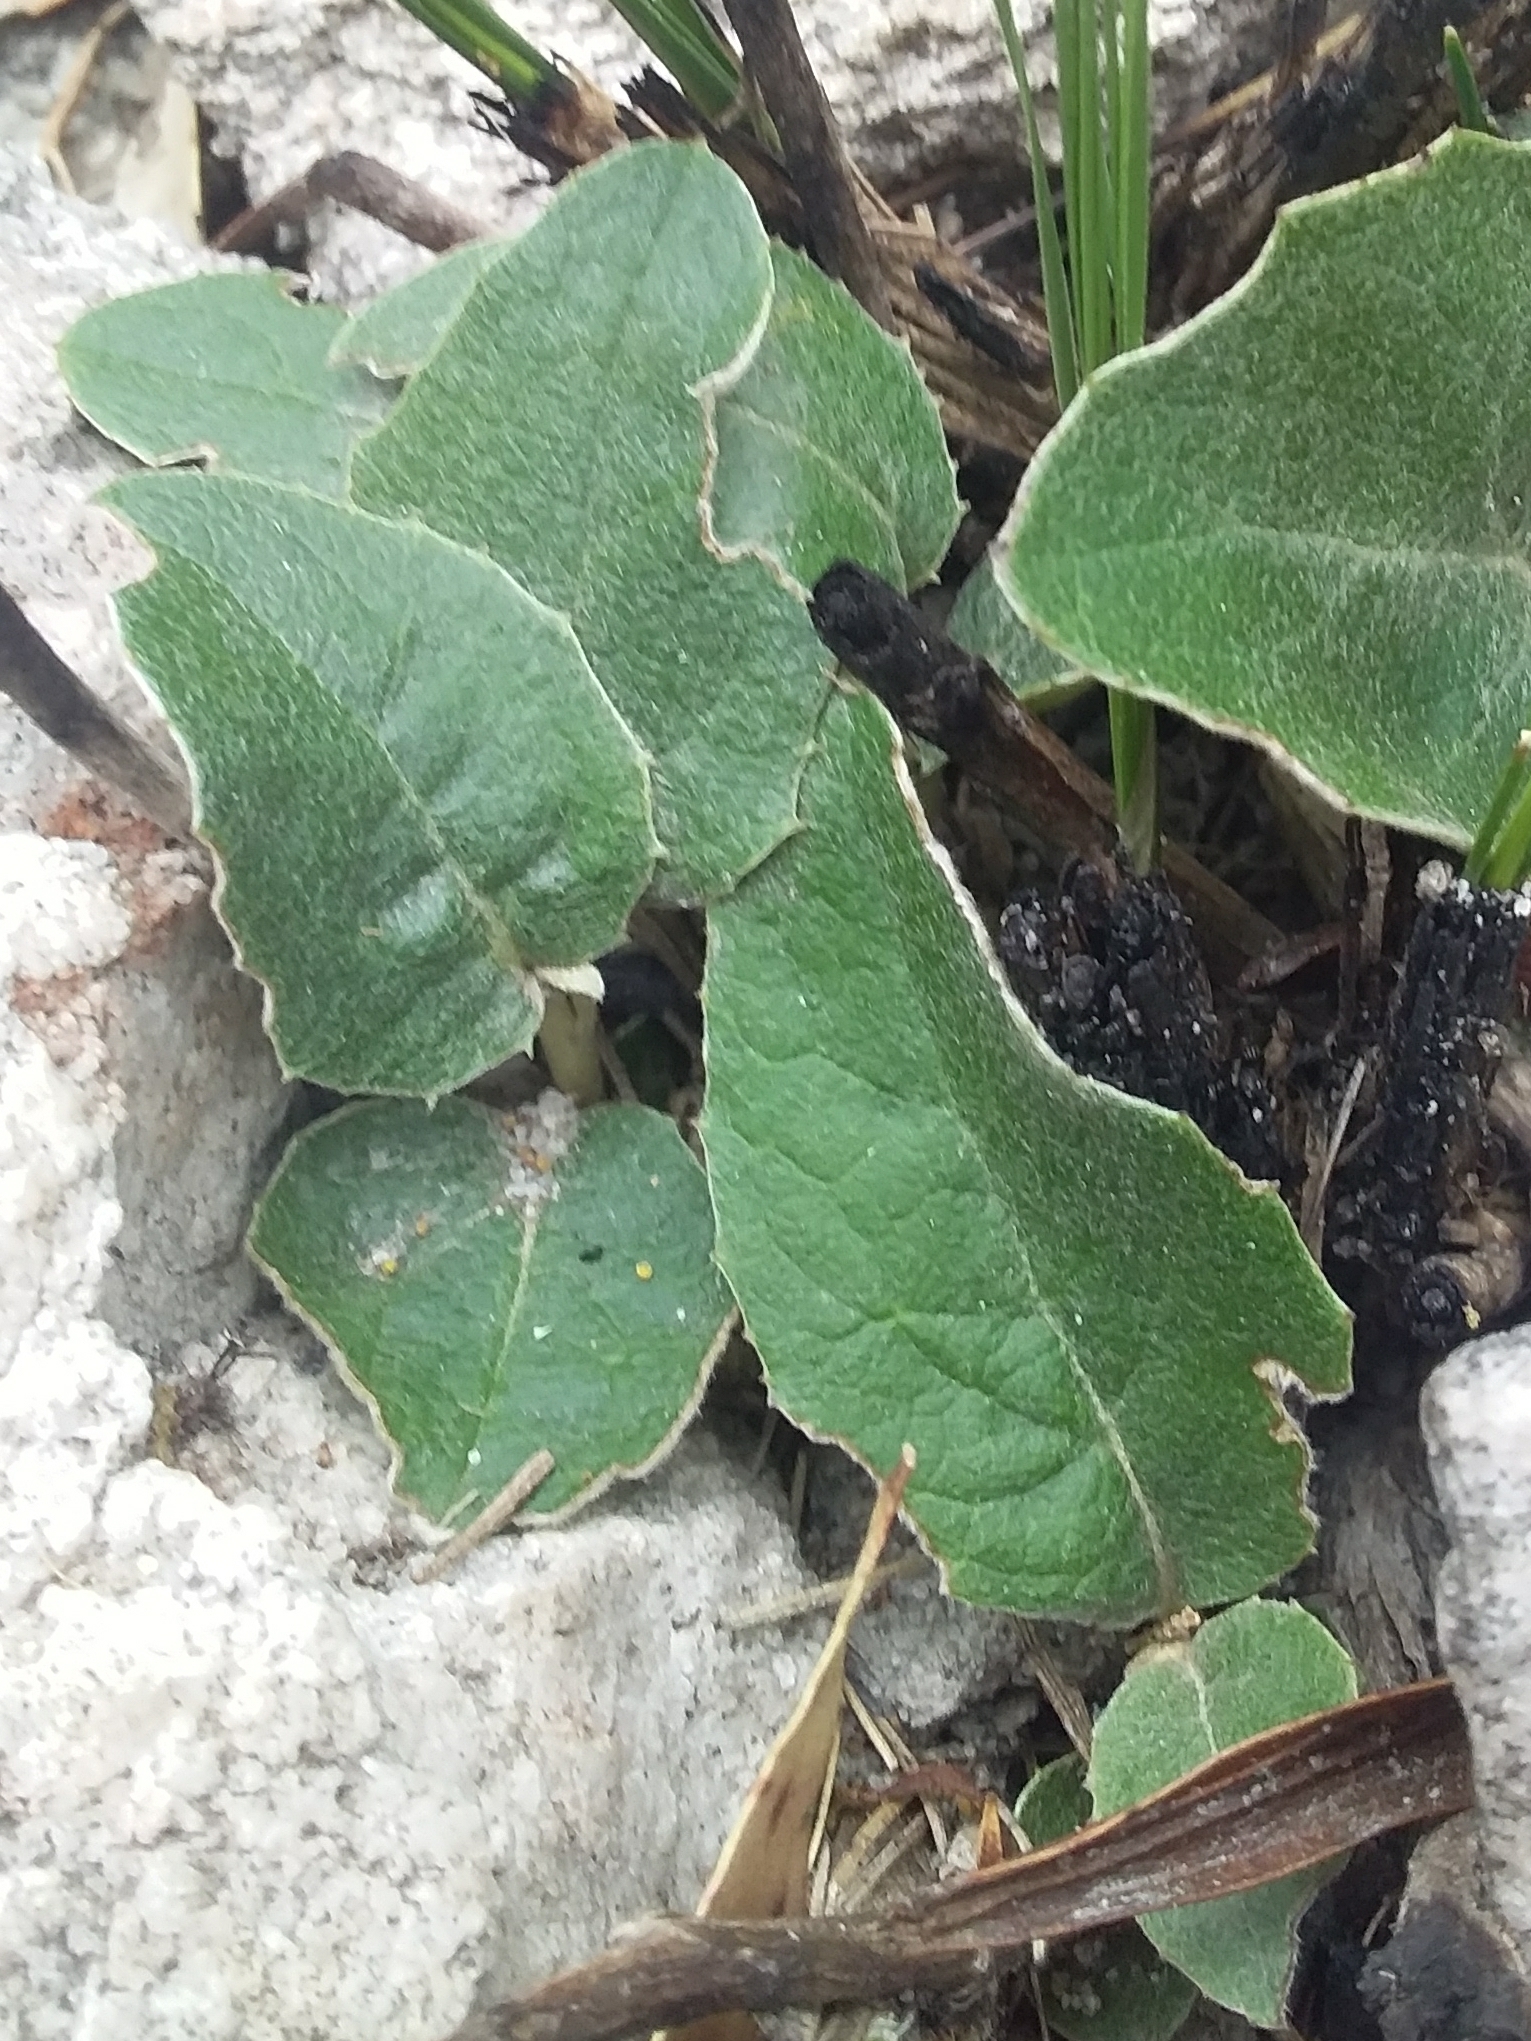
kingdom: Plantae
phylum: Tracheophyta
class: Magnoliopsida
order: Asterales
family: Asteraceae
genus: Olearia
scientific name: Olearia grandiflora
